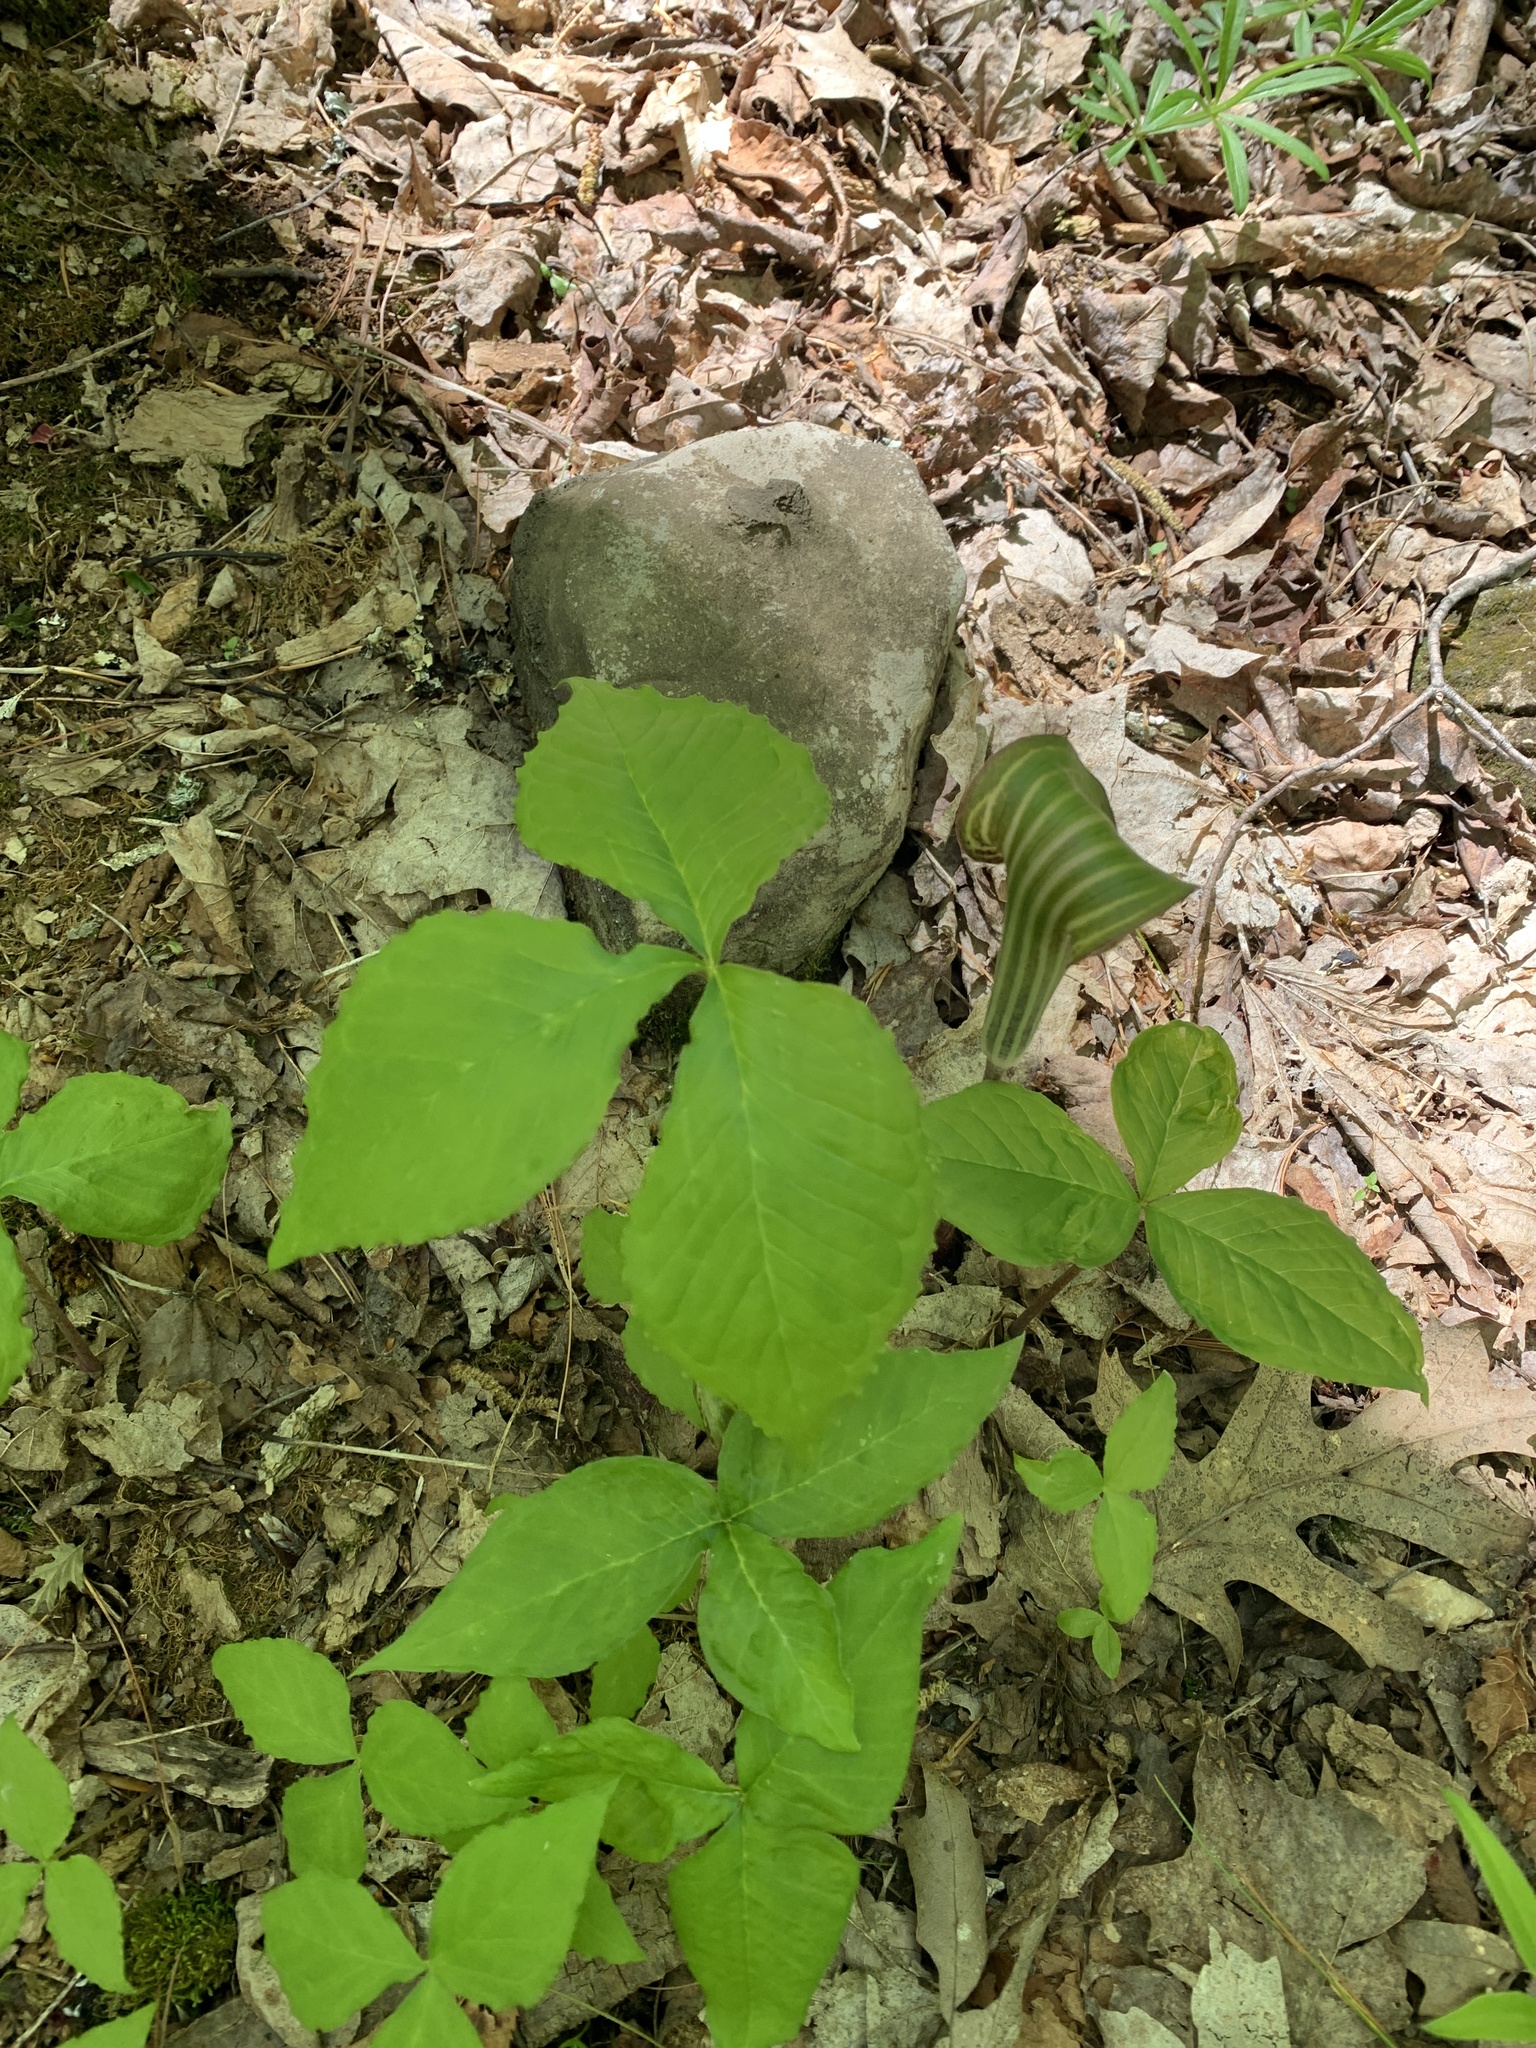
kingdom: Plantae
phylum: Tracheophyta
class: Liliopsida
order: Alismatales
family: Araceae
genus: Arisaema
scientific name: Arisaema triphyllum
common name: Jack-in-the-pulpit
